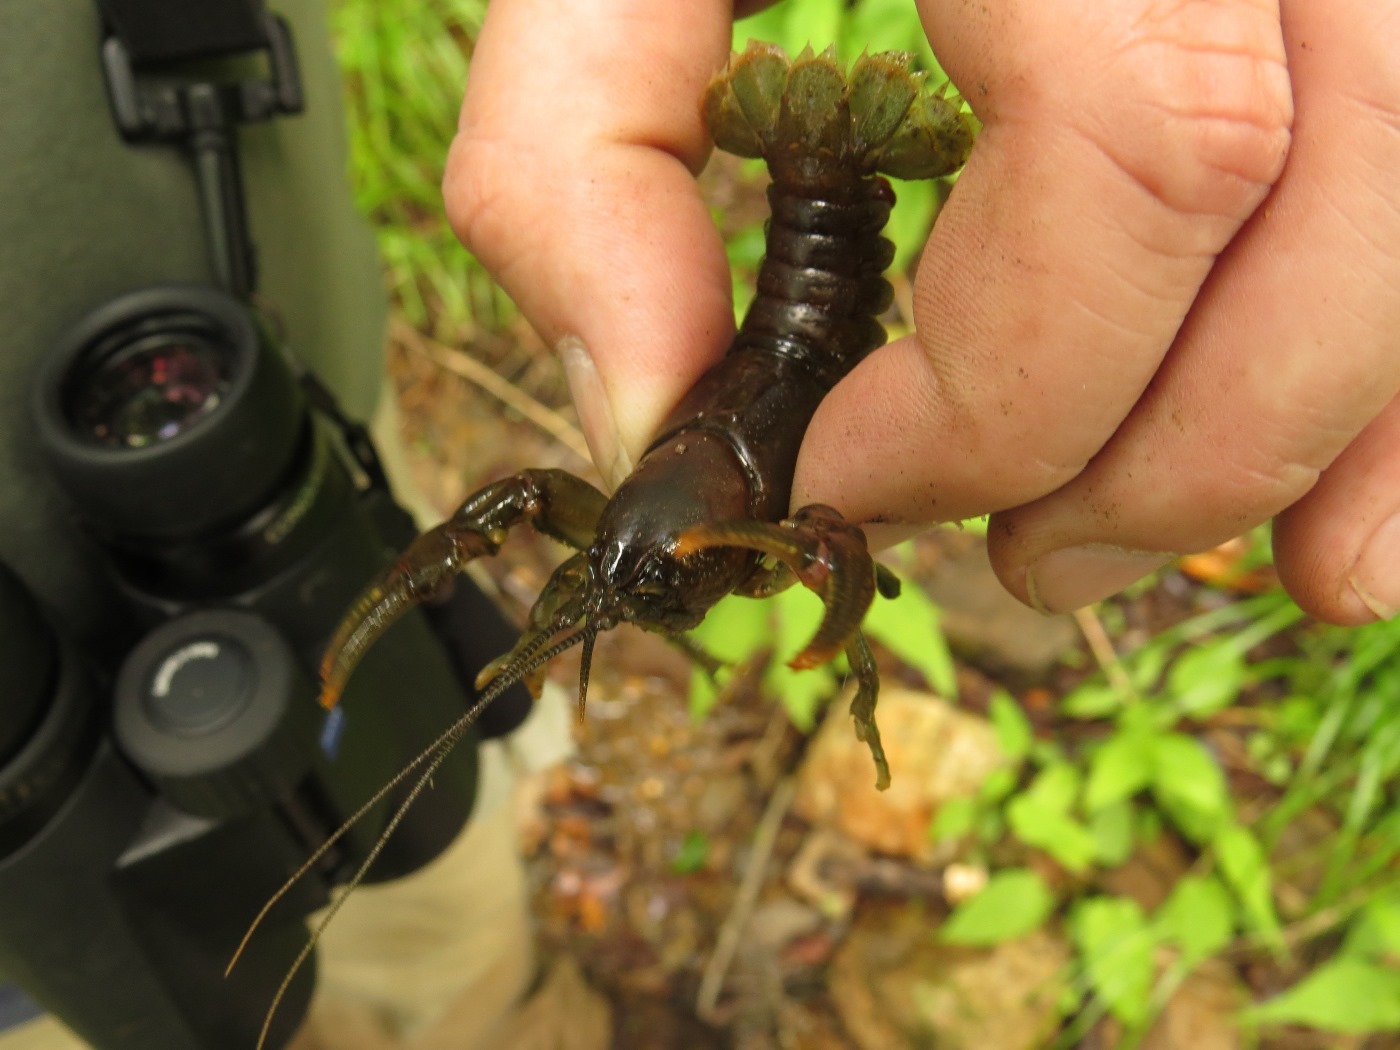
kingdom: Animalia
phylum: Arthropoda
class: Malacostraca
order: Decapoda
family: Cambaridae
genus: Cambarus
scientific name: Cambarus bartonii
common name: Appalachian brook crayfish
